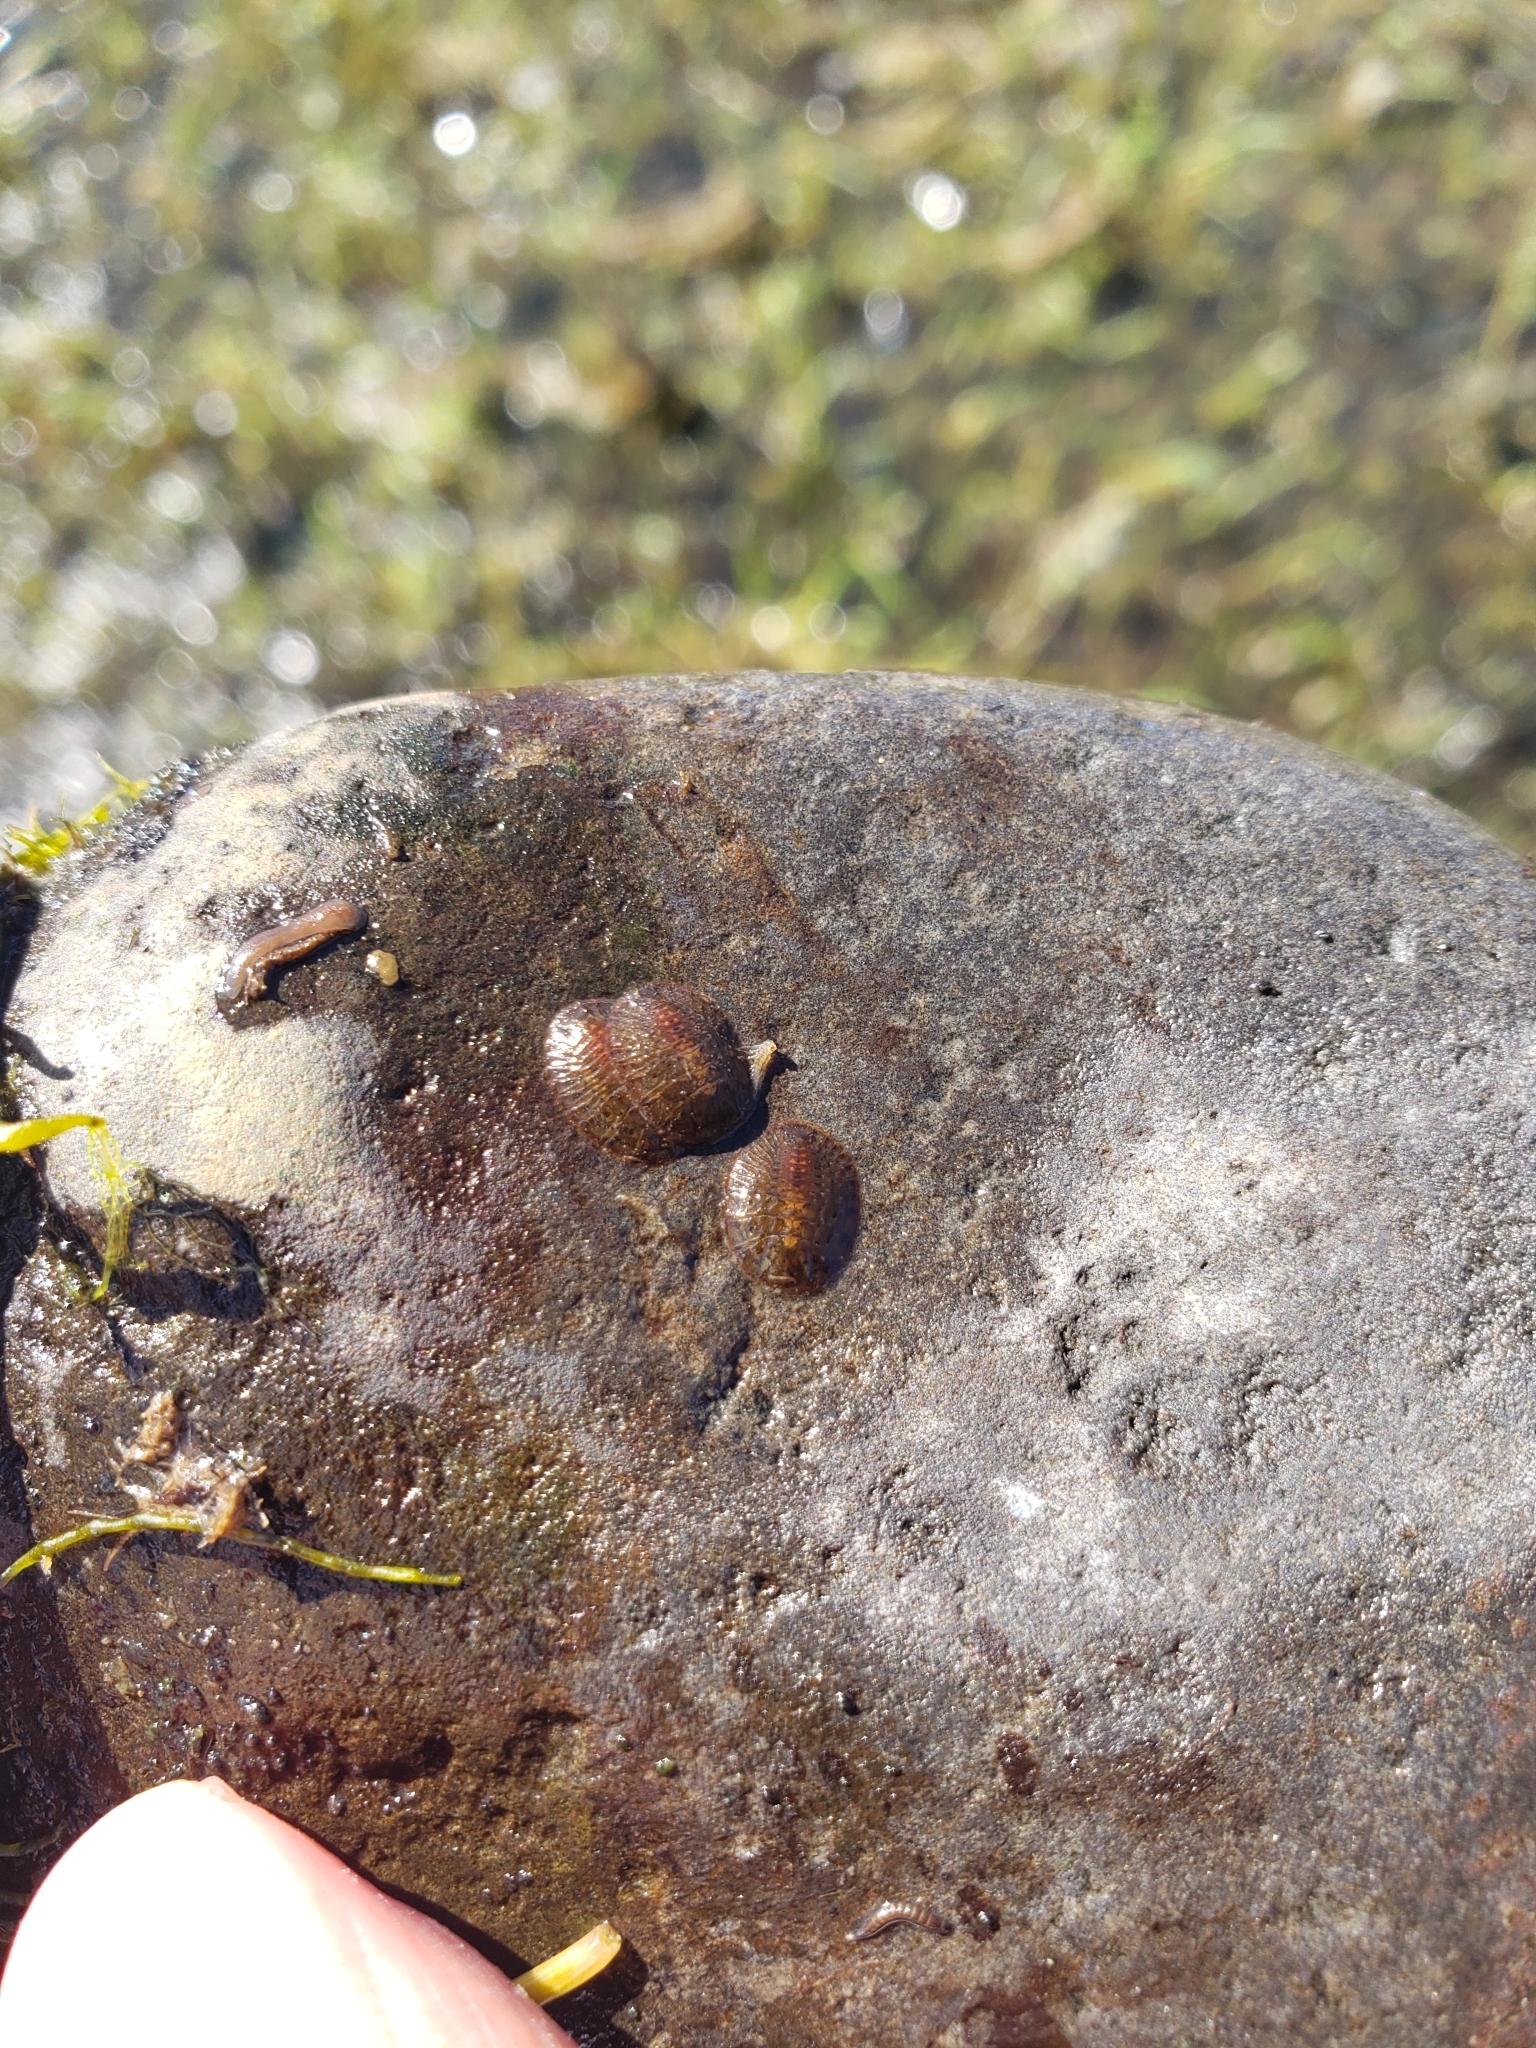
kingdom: Animalia
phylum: Arthropoda
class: Insecta
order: Coleoptera
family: Psephenidae
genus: Psephenus
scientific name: Psephenus falli
